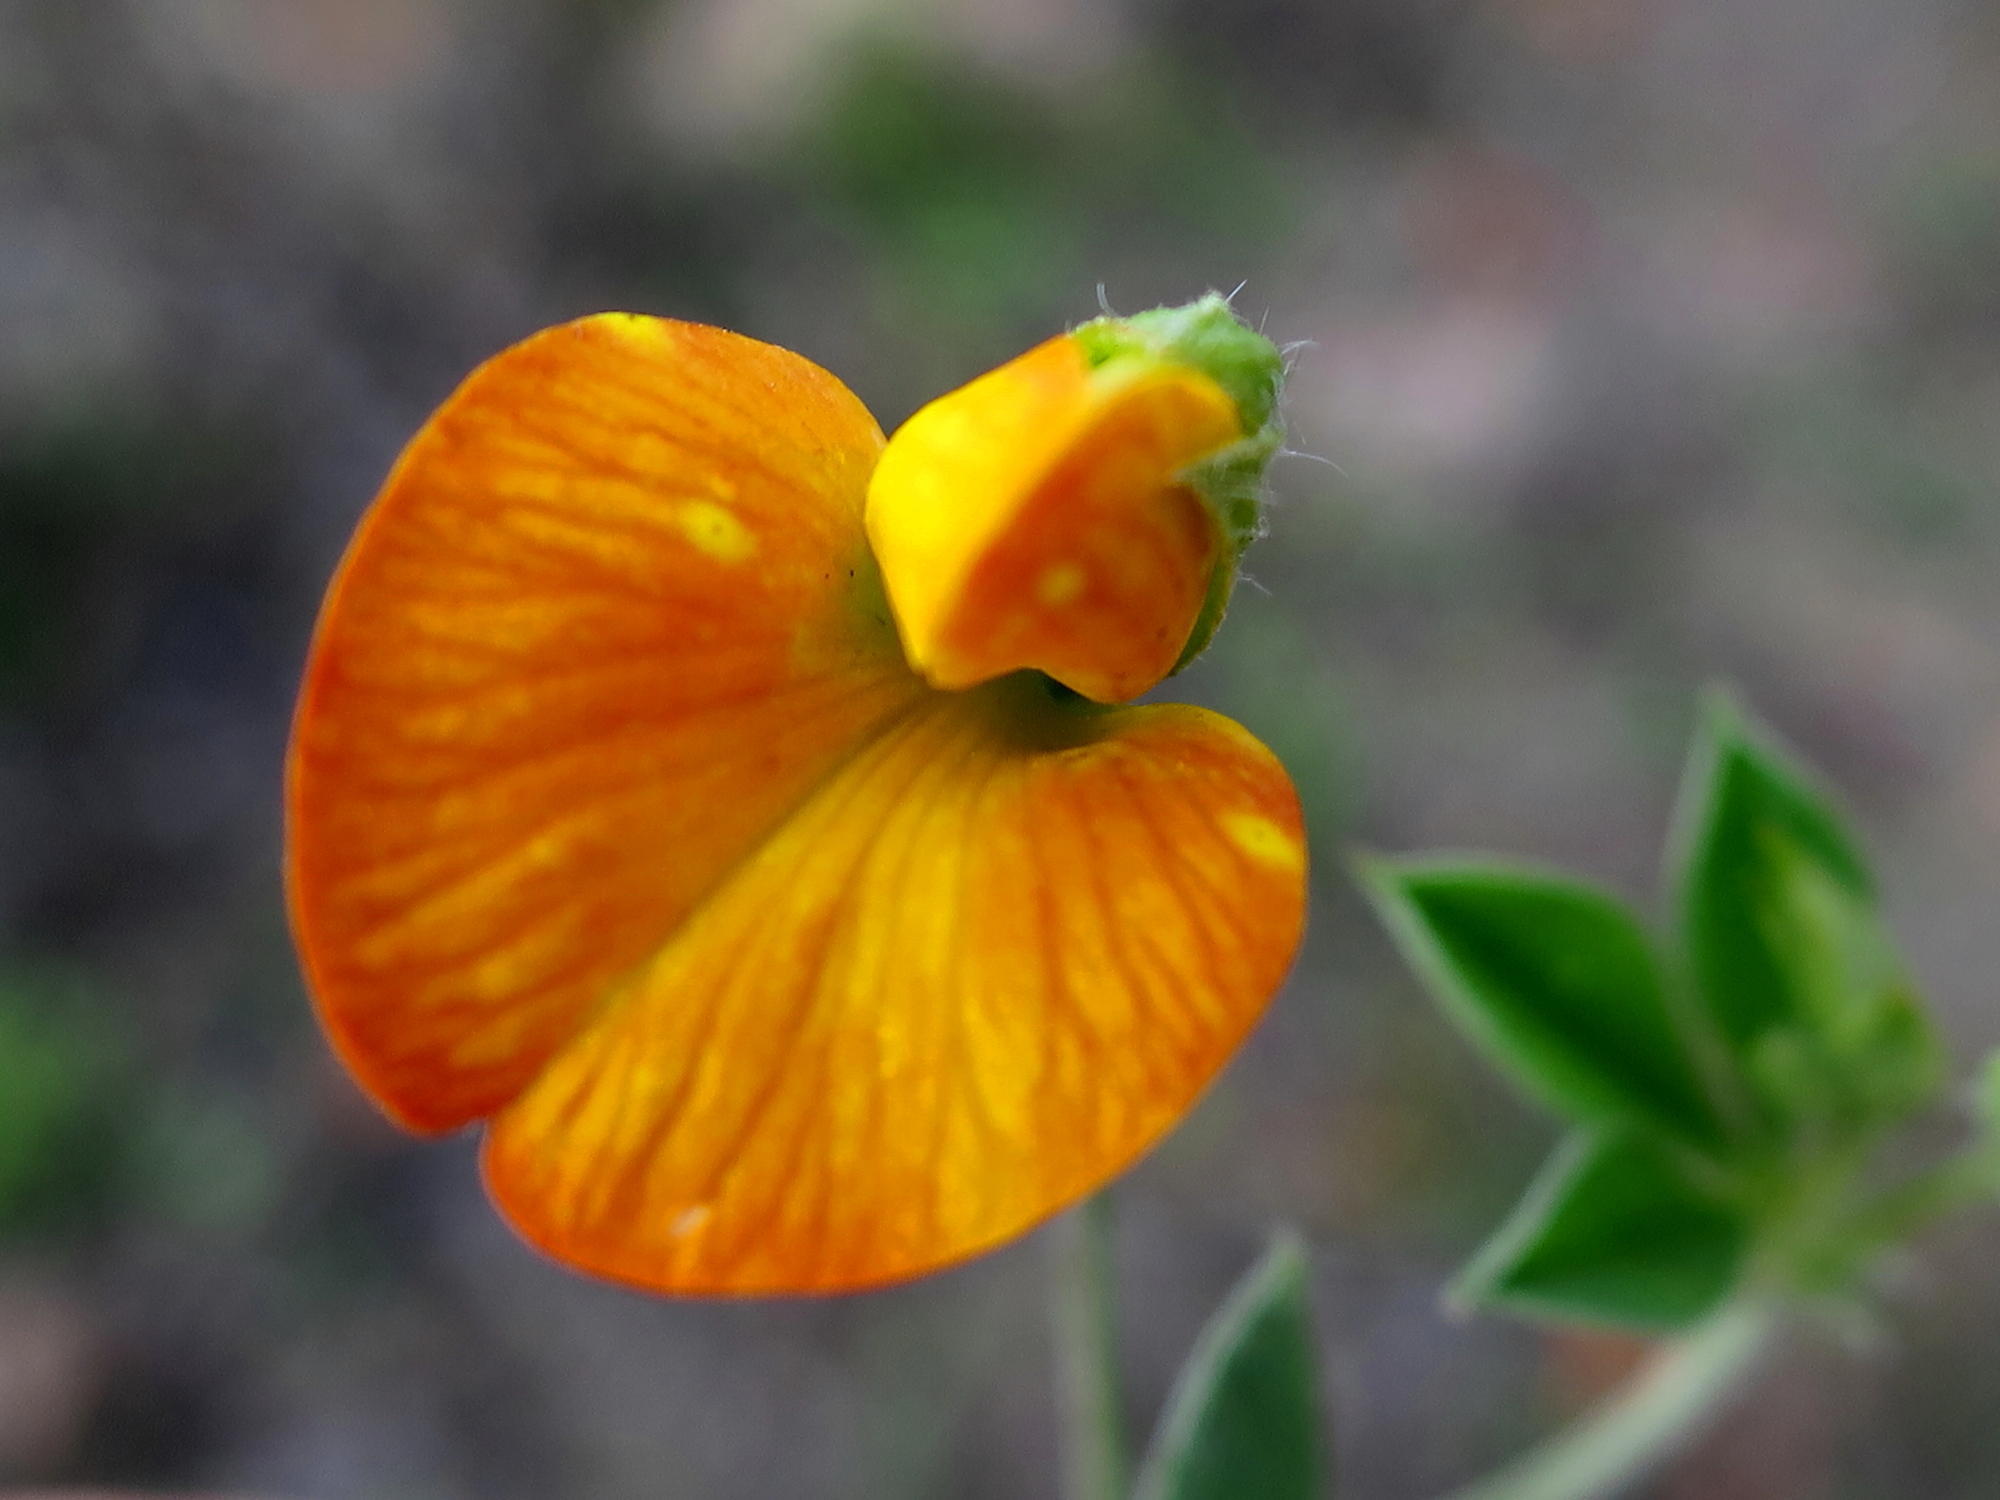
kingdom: Plantae
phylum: Tracheophyta
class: Magnoliopsida
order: Fabales
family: Fabaceae
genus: Argyrolobium
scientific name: Argyrolobium molle
